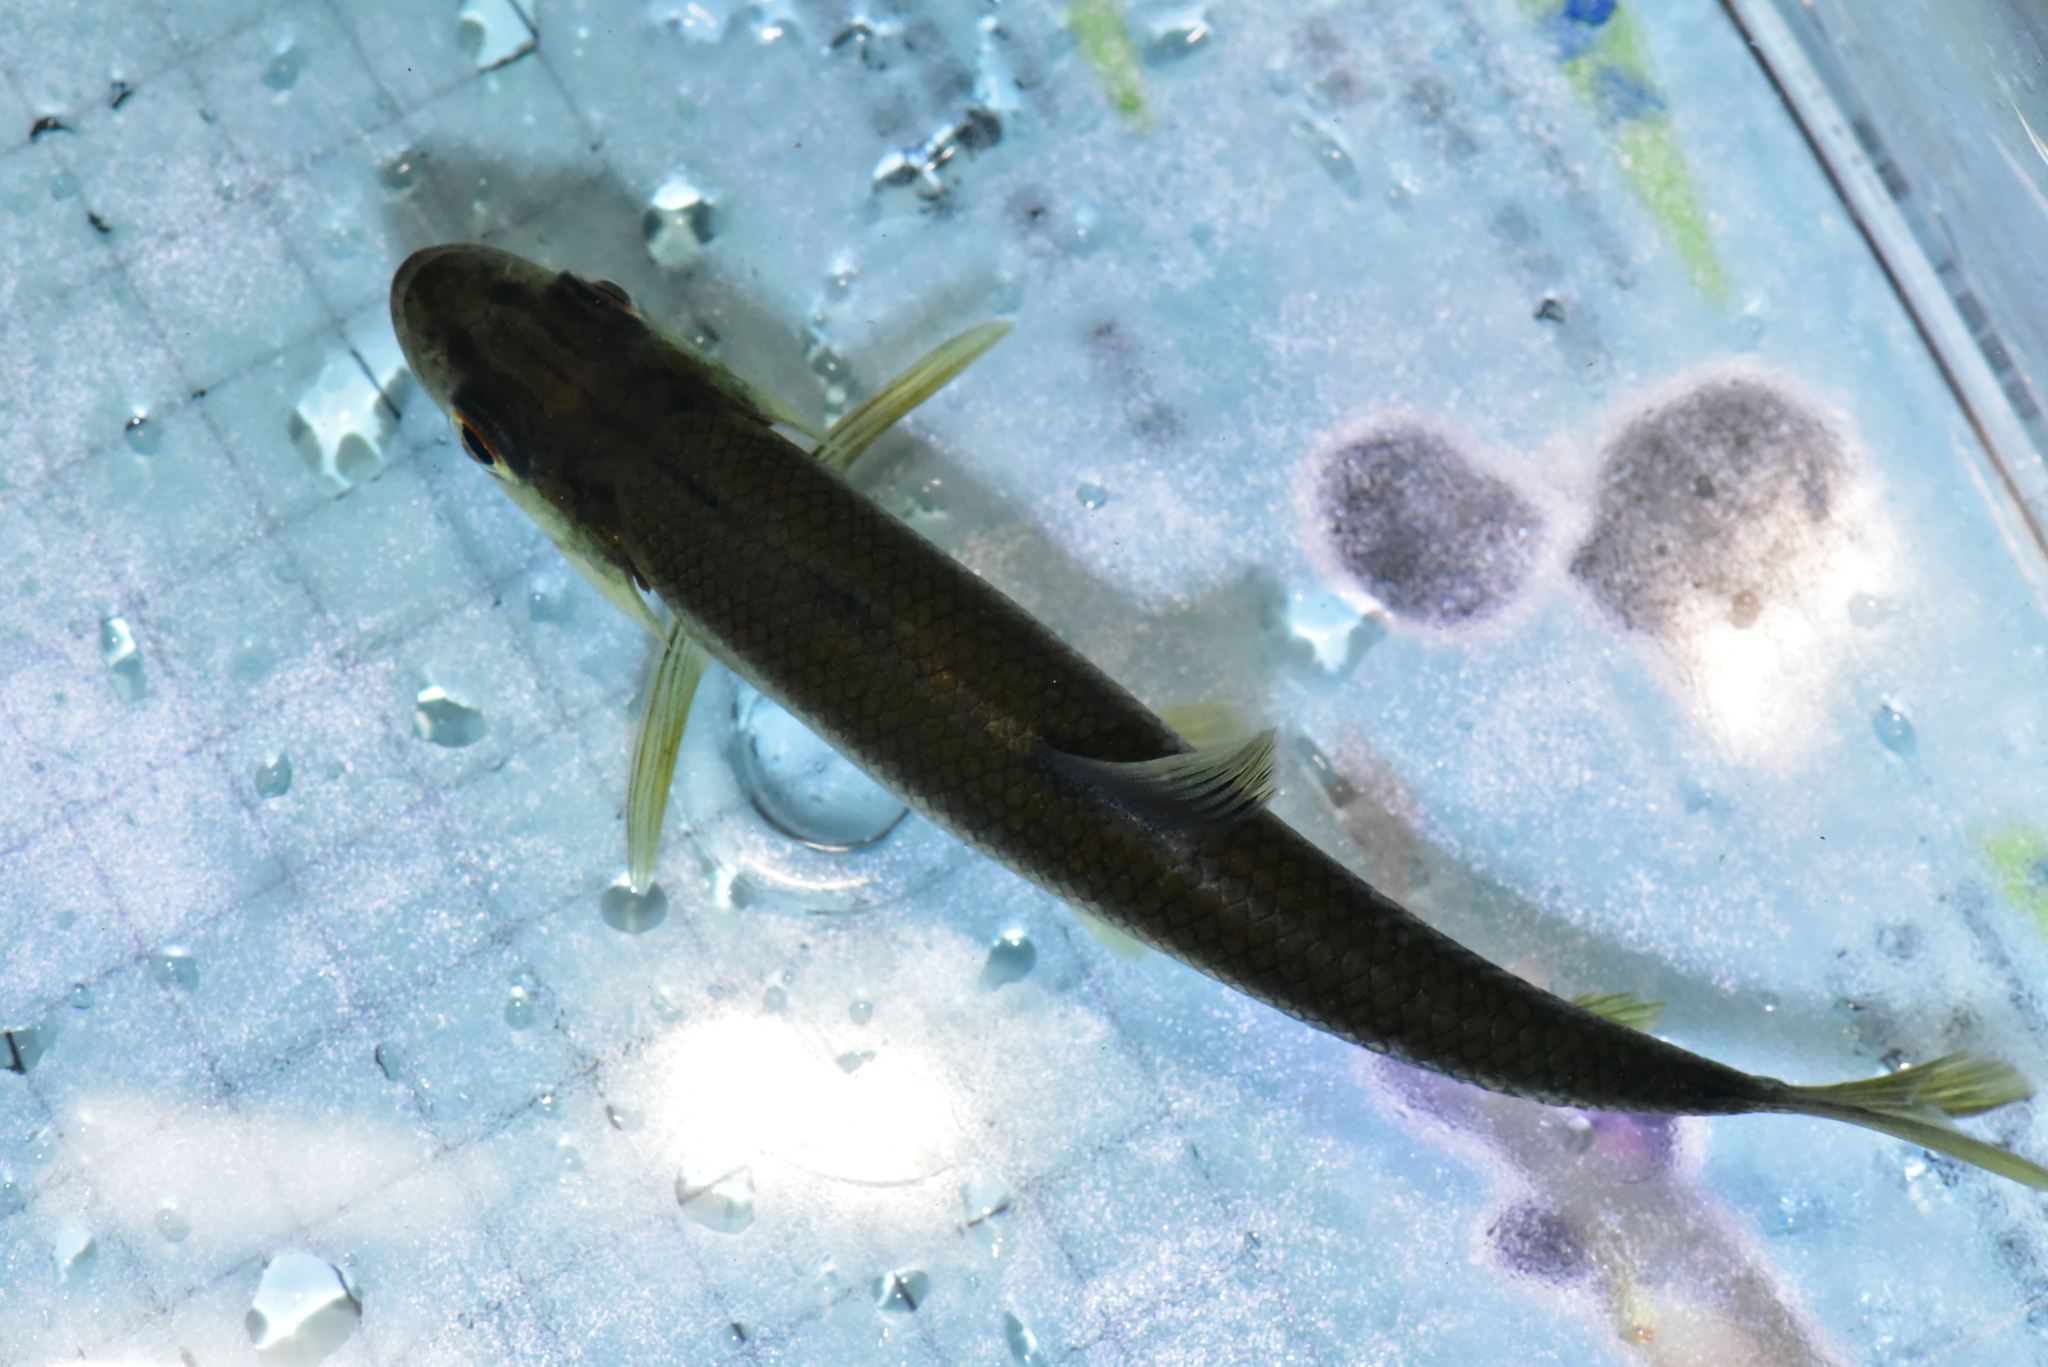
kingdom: Animalia
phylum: Chordata
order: Cypriniformes
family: Cyprinidae
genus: Opsariichthys
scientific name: Opsariichthys pachycephalus
